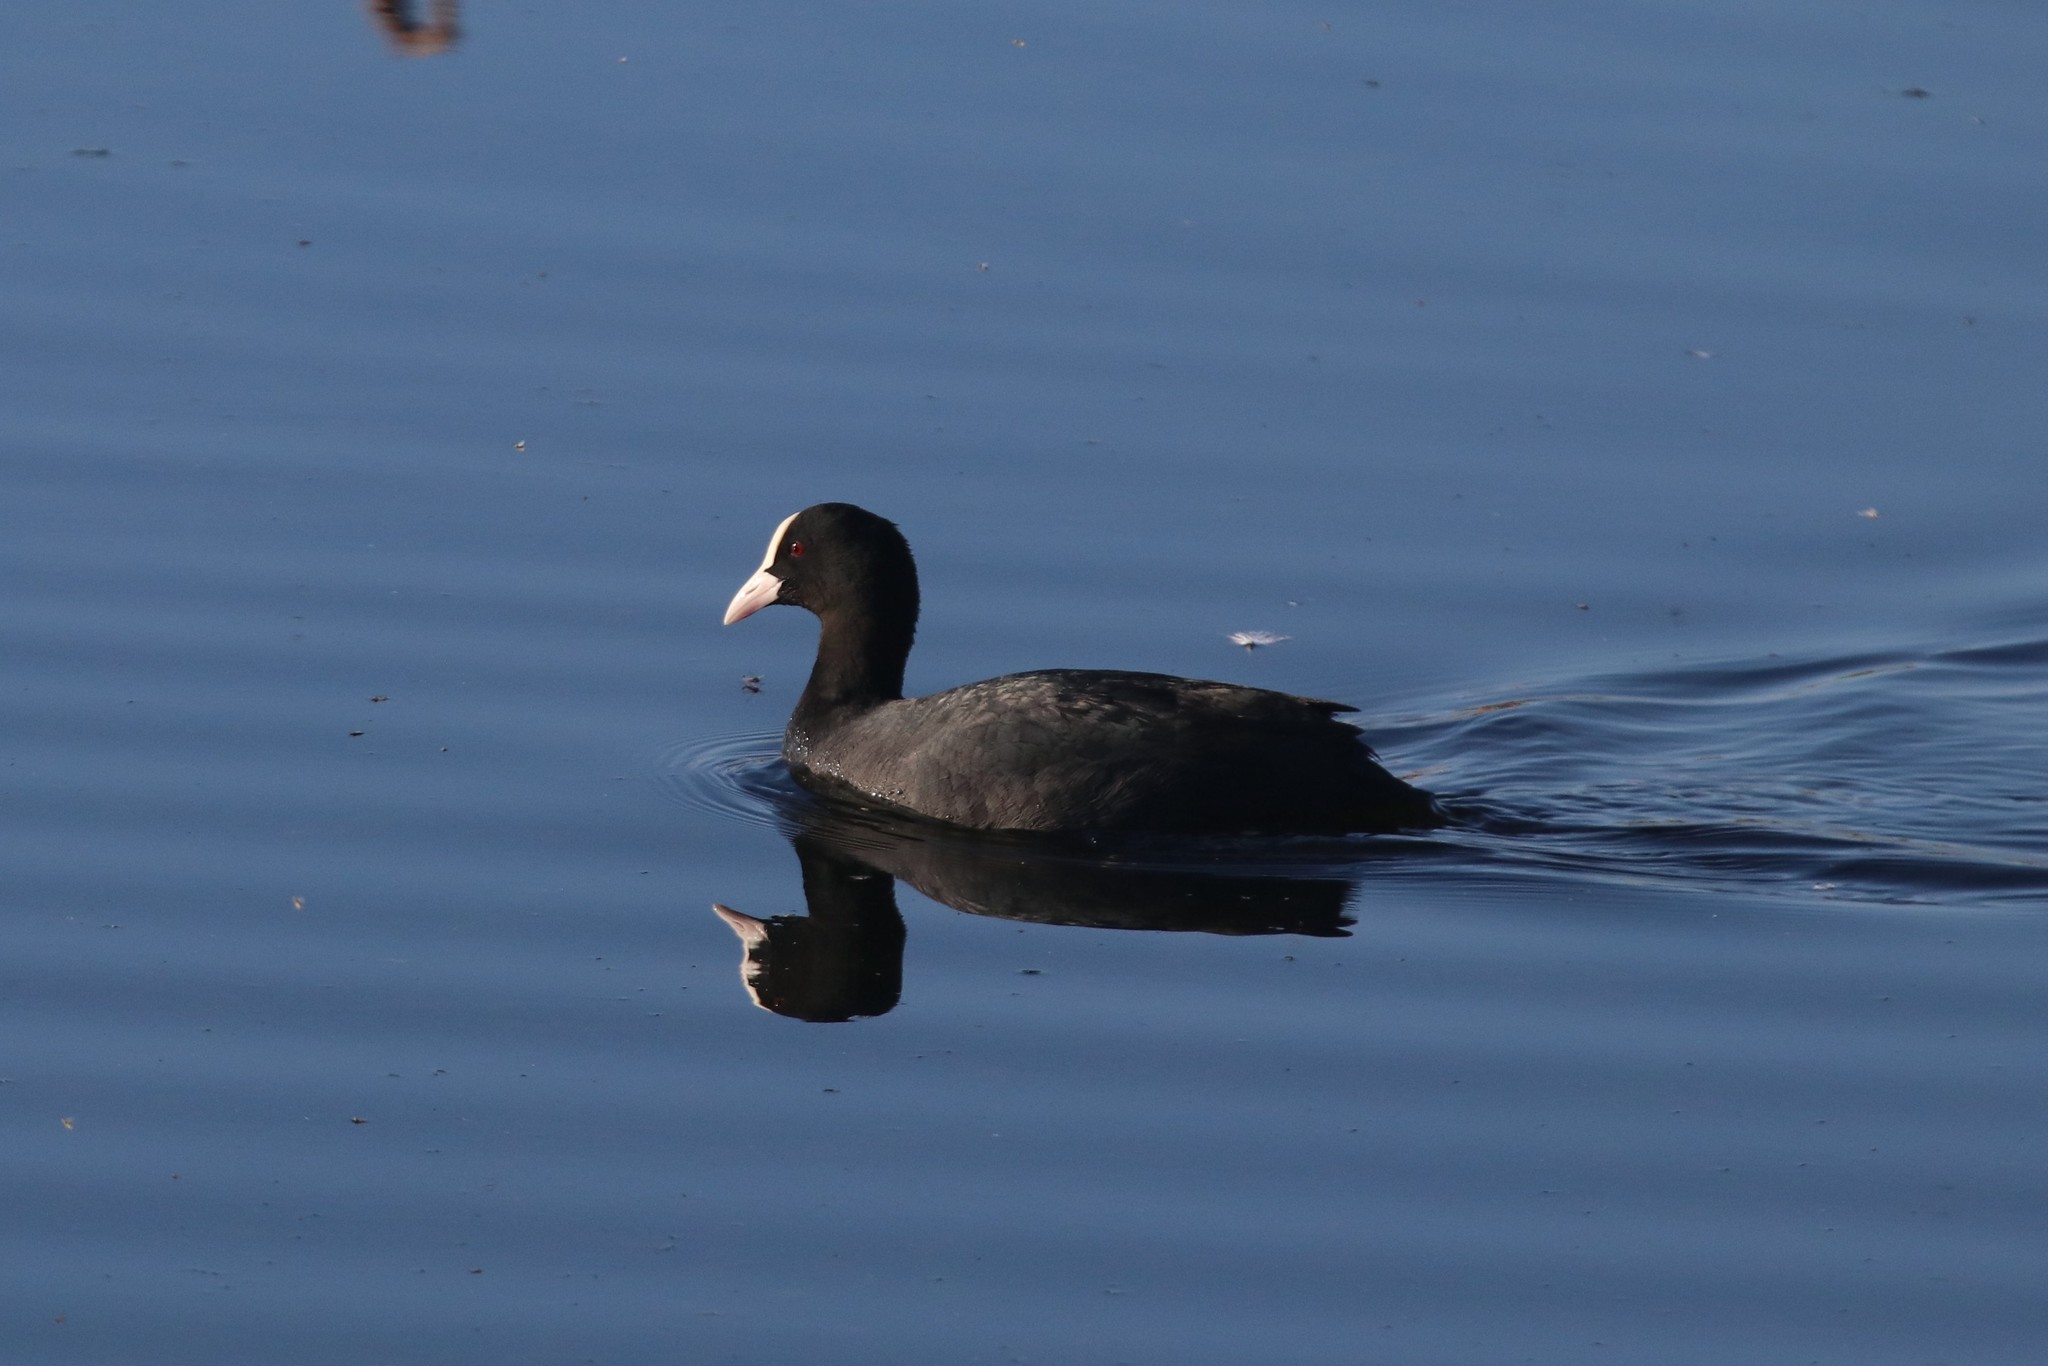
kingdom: Animalia
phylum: Chordata
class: Aves
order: Gruiformes
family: Rallidae
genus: Fulica
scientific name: Fulica atra
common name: Eurasian coot
